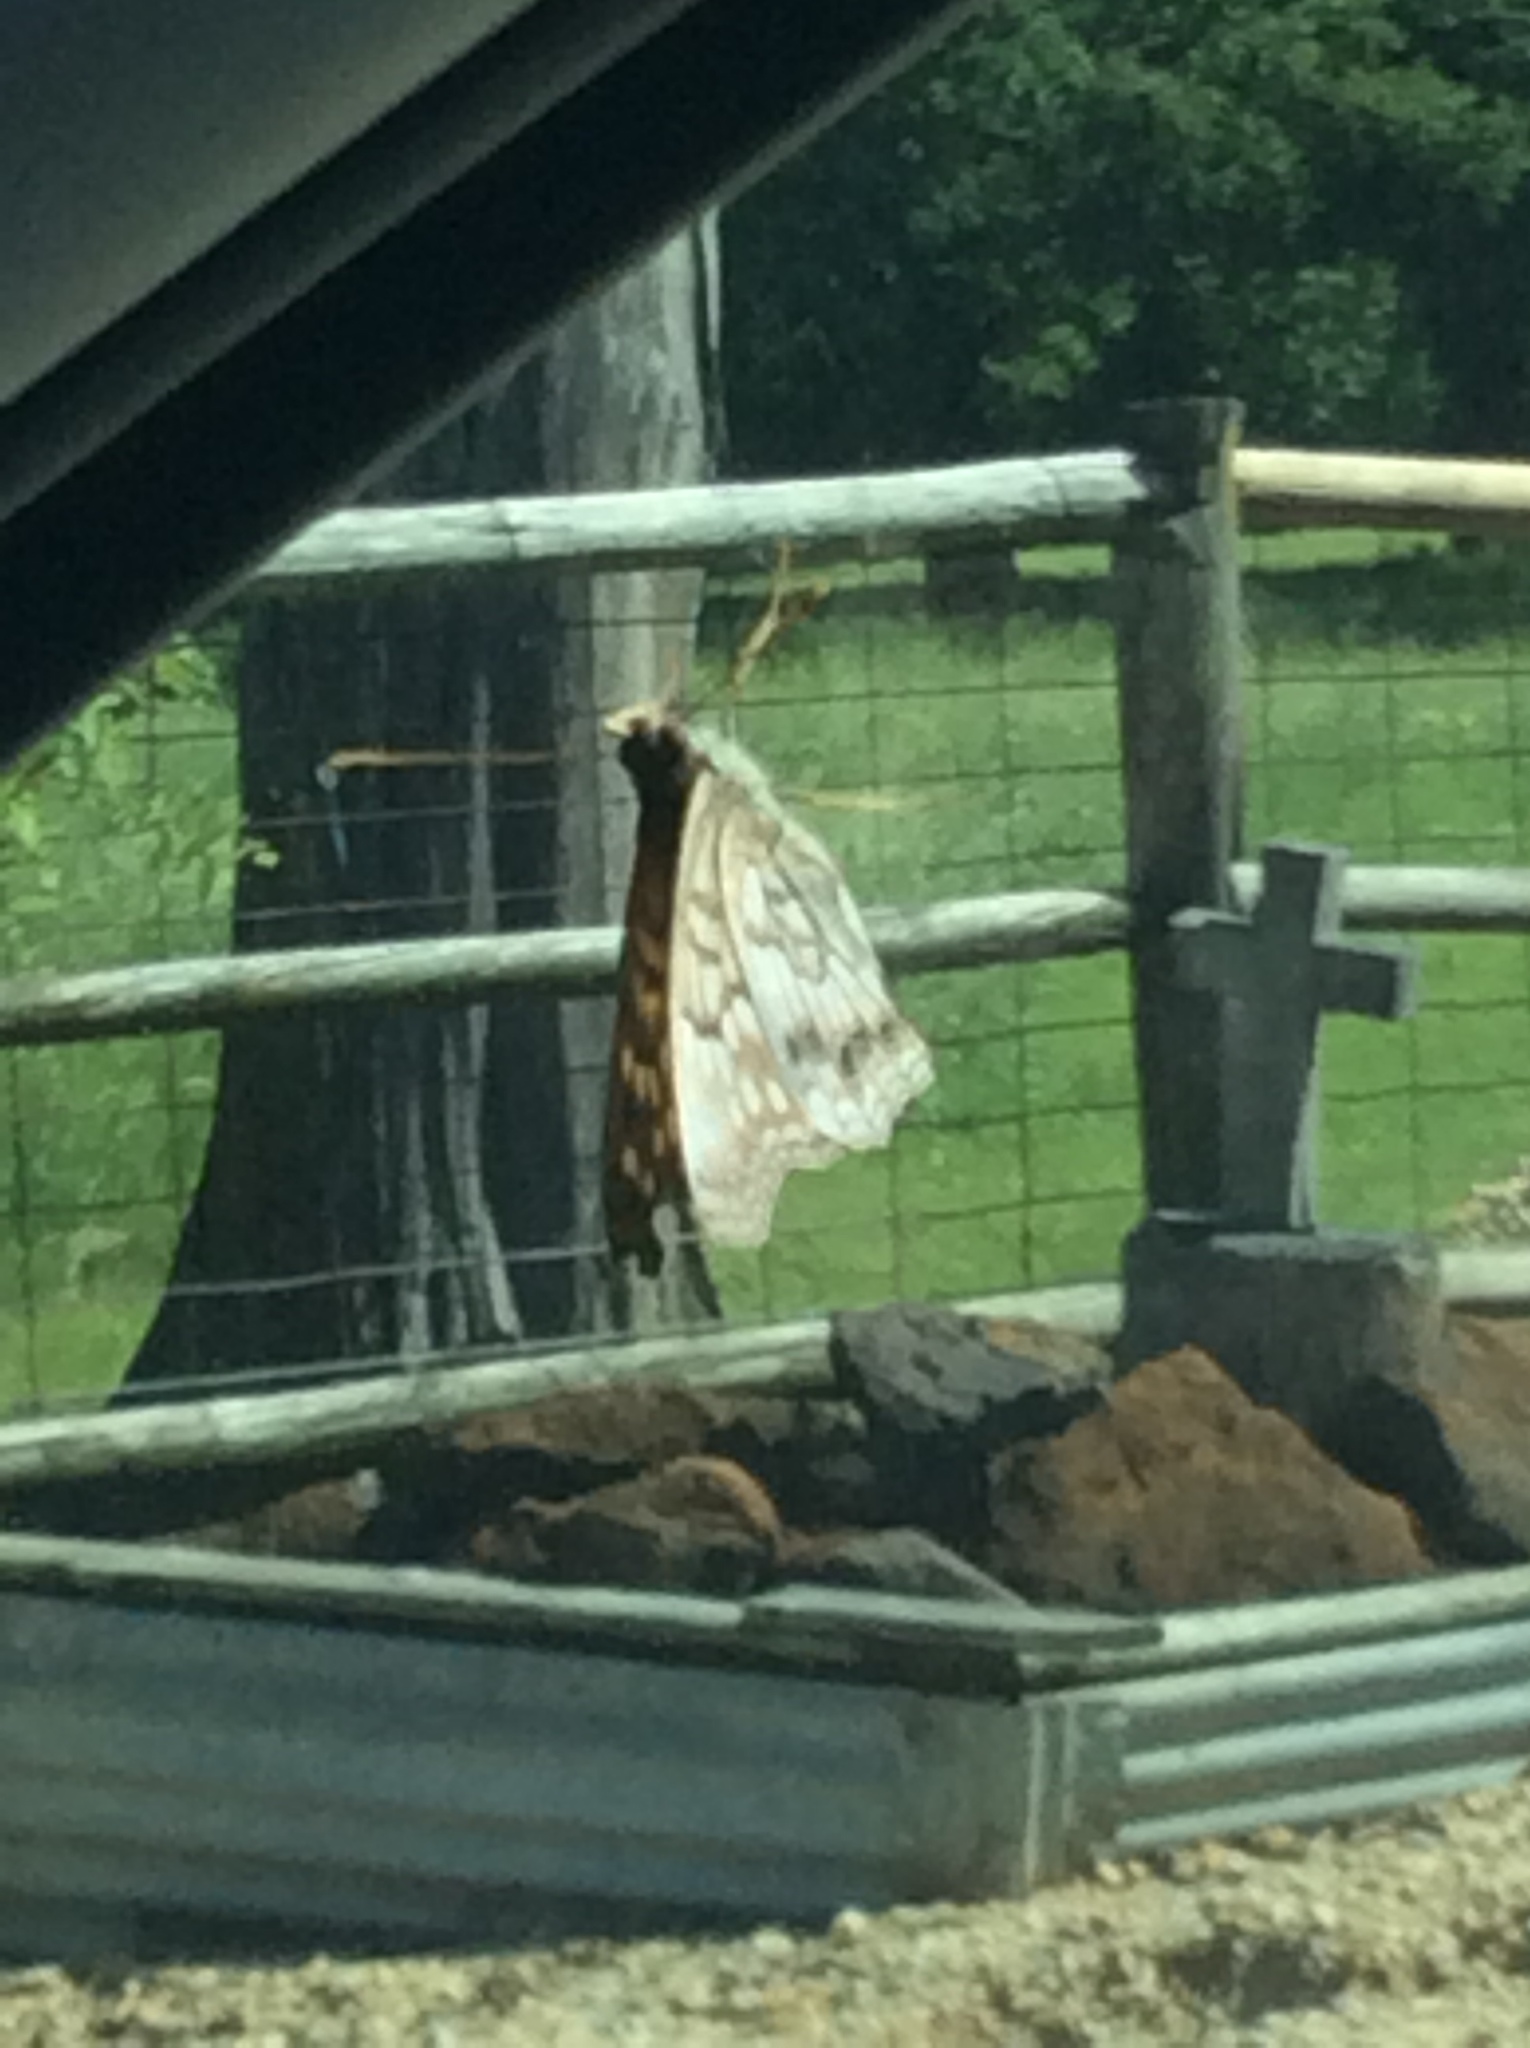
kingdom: Animalia
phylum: Arthropoda
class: Insecta
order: Lepidoptera
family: Nymphalidae
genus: Asterocampa
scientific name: Asterocampa clyton
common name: Tawny emperor
